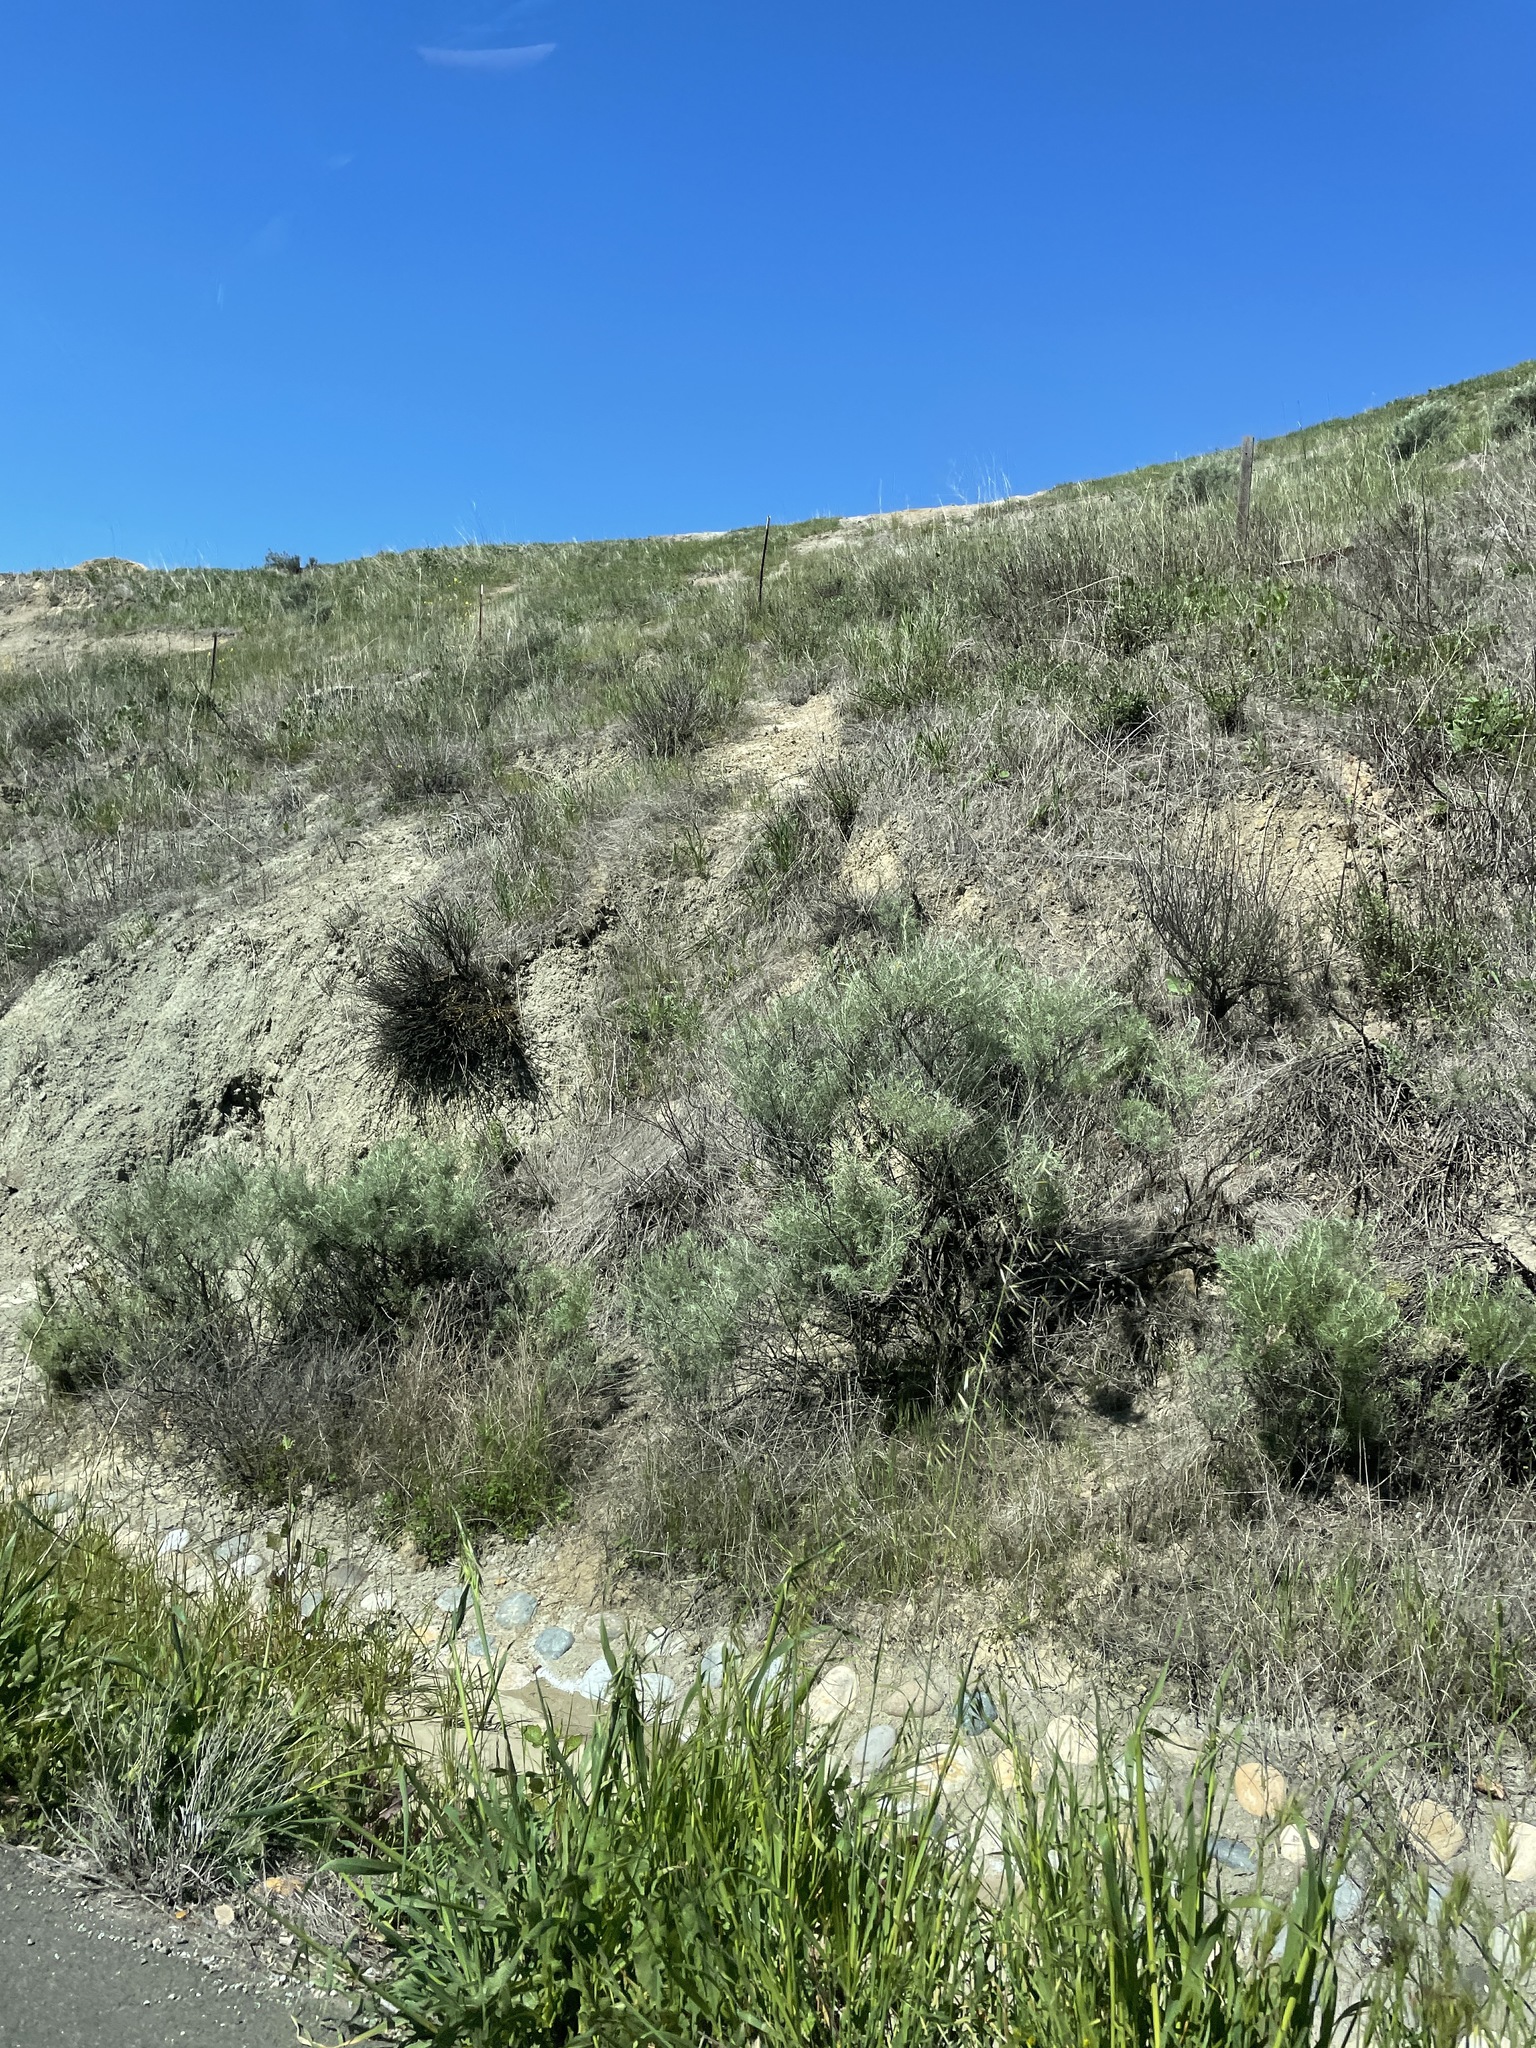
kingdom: Plantae
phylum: Tracheophyta
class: Magnoliopsida
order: Asterales
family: Asteraceae
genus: Artemisia
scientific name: Artemisia californica
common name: California sagebrush
